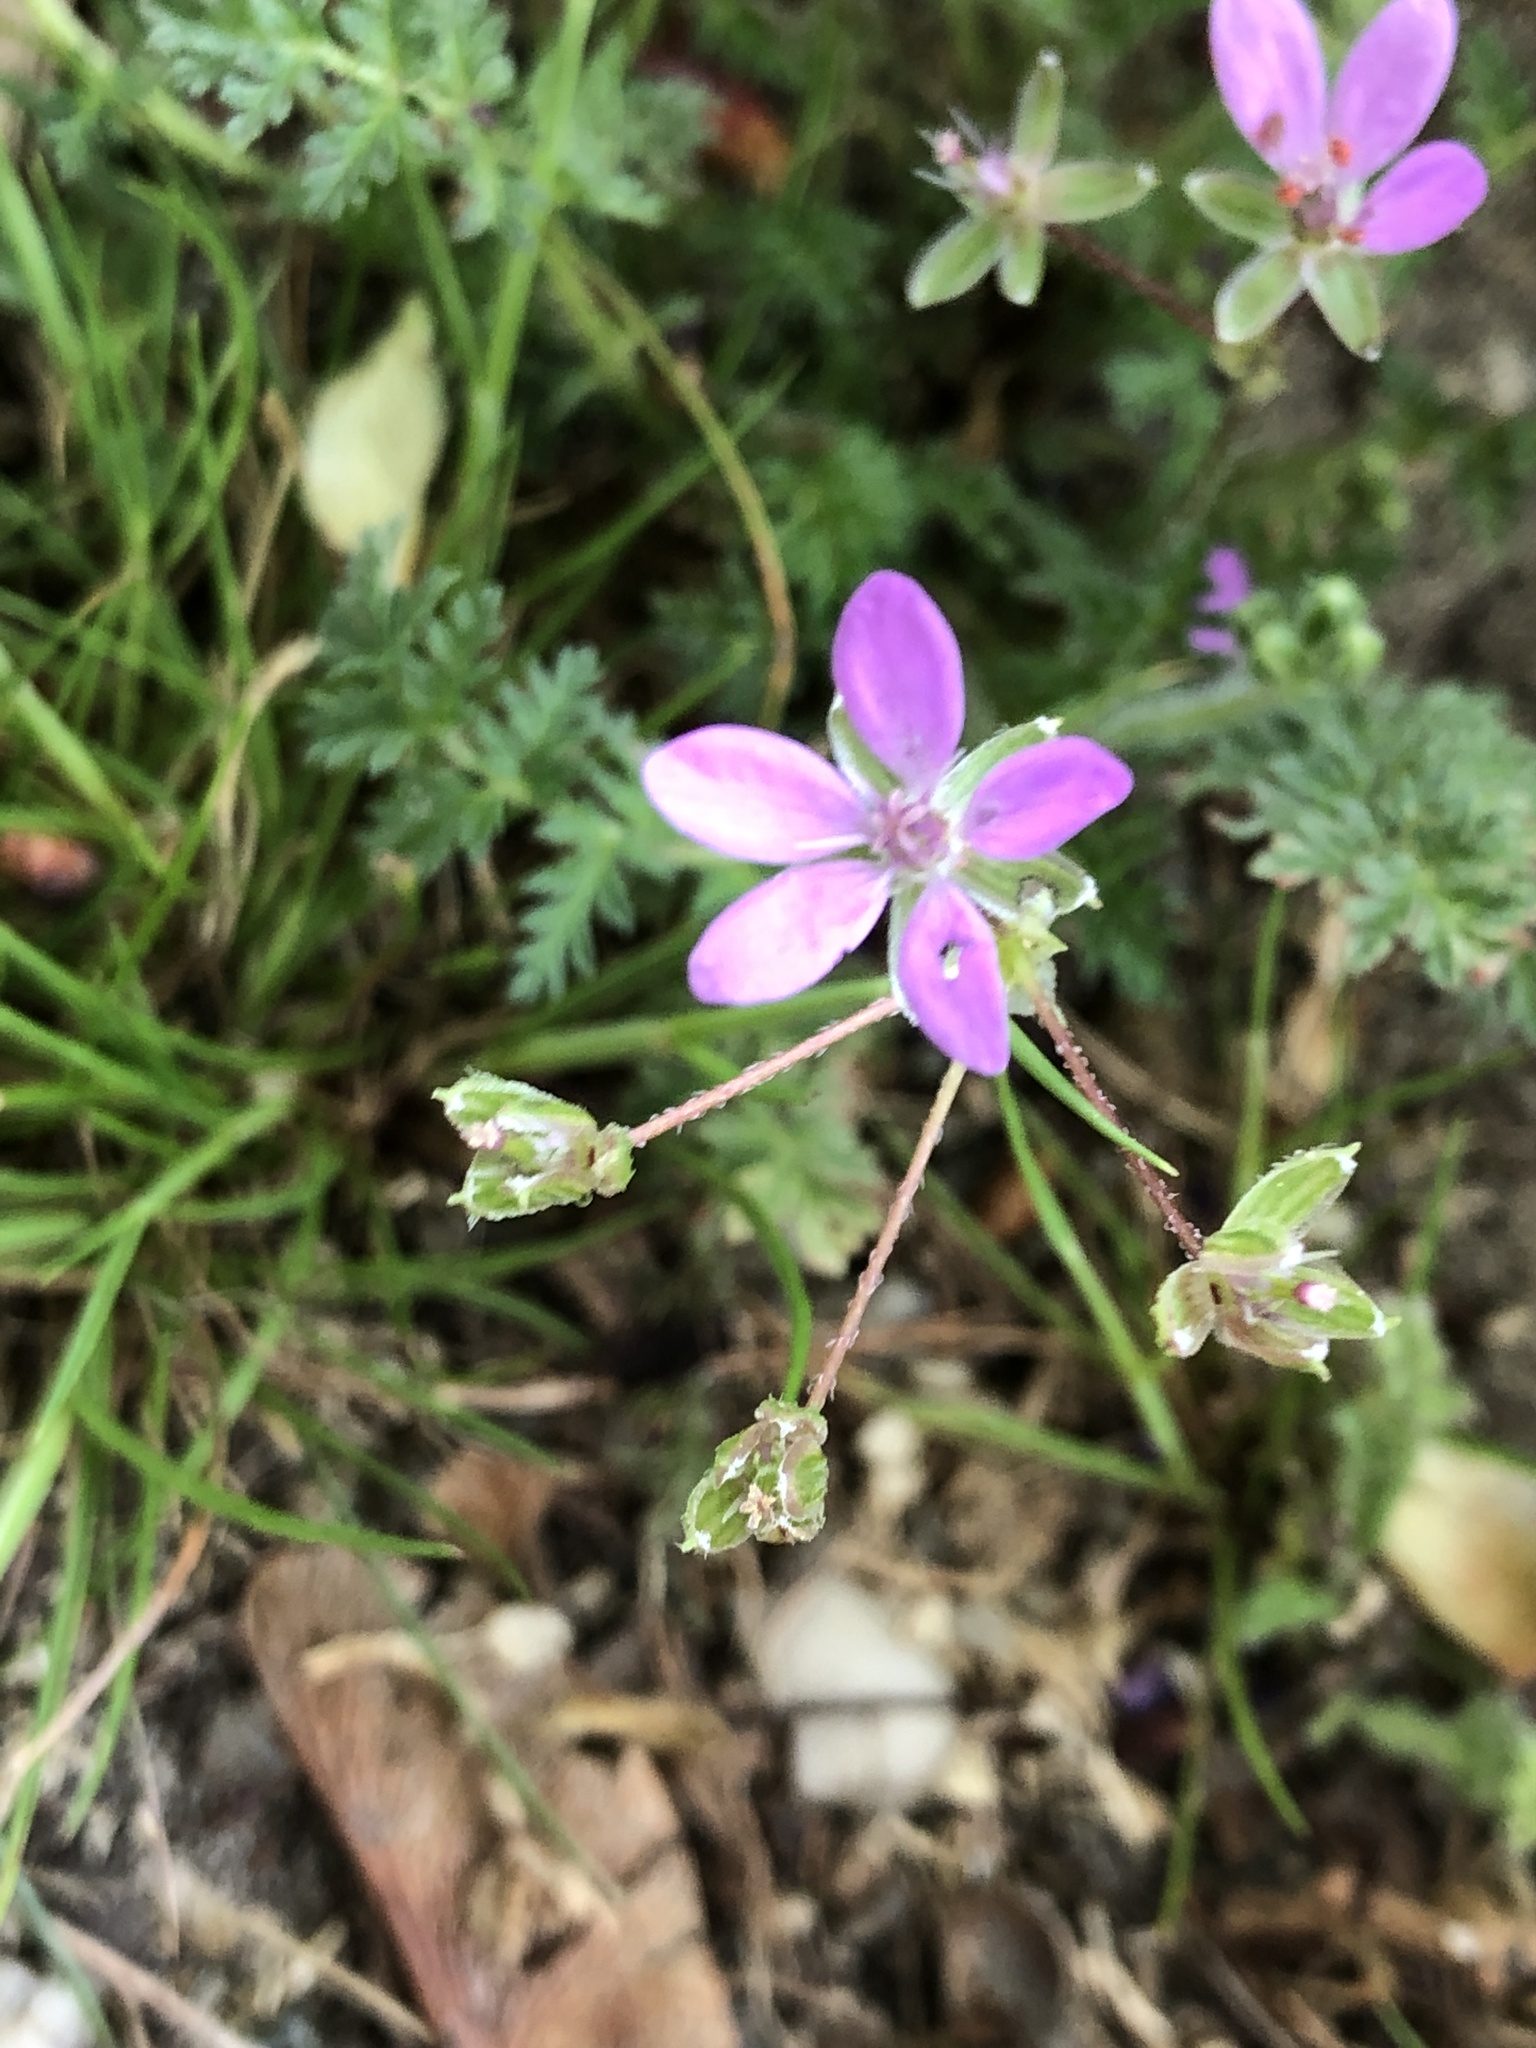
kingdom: Plantae
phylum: Tracheophyta
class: Magnoliopsida
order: Geraniales
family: Geraniaceae
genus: Erodium
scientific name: Erodium cicutarium
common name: Common stork's-bill
